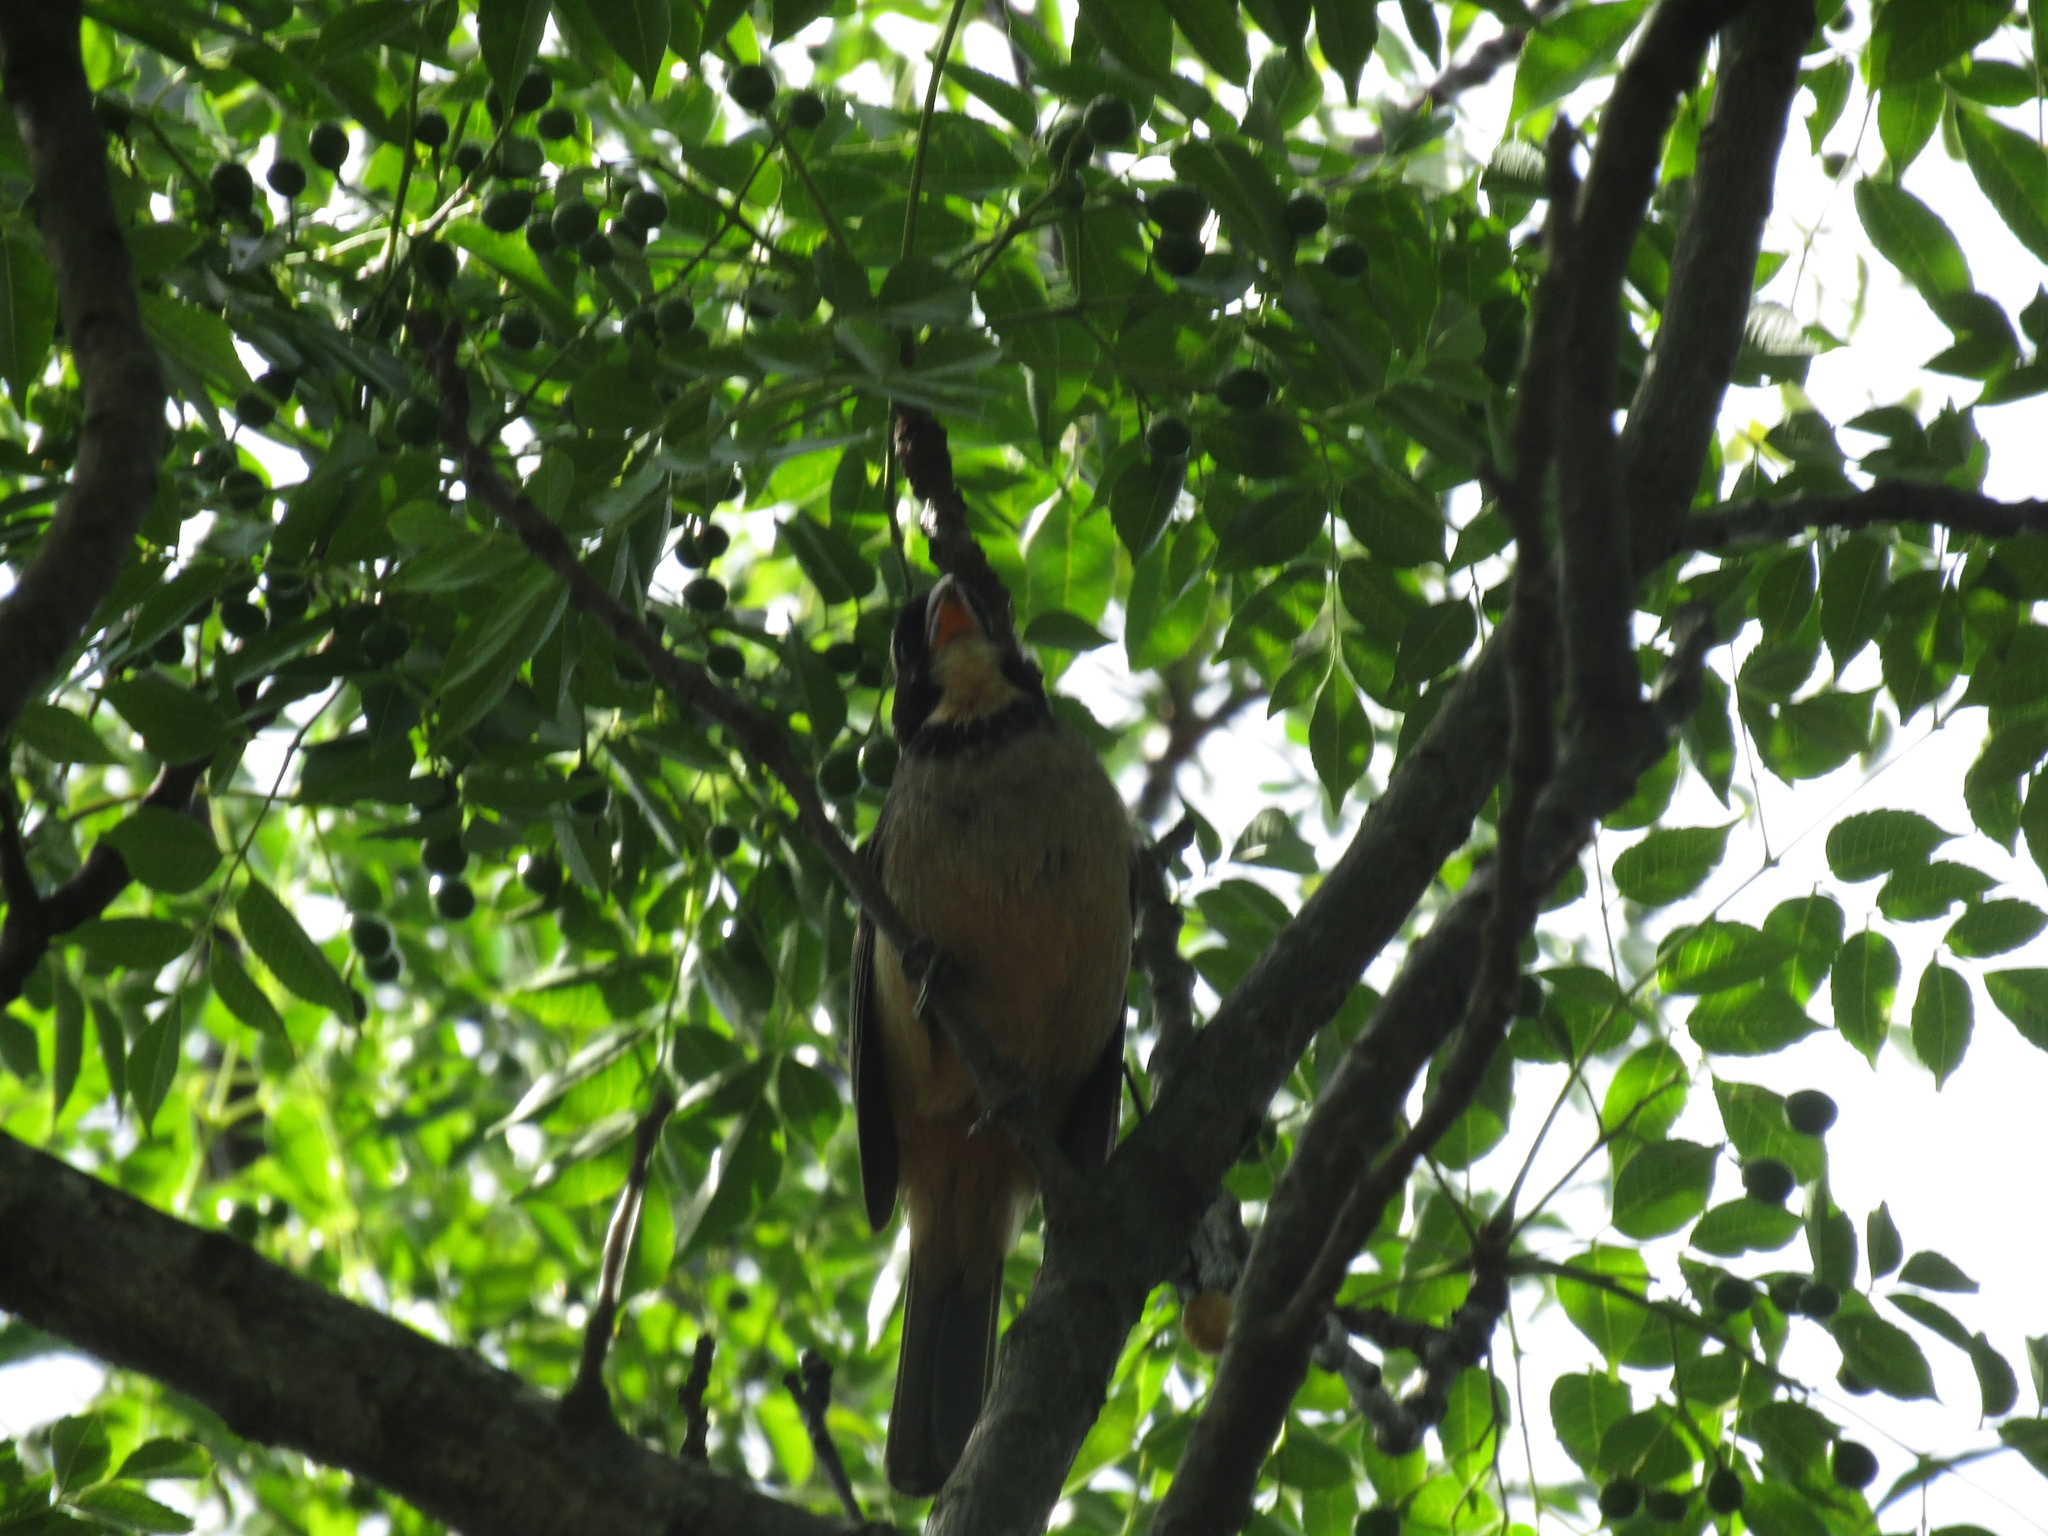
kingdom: Animalia
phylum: Chordata
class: Aves
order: Passeriformes
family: Thraupidae
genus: Saltator
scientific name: Saltator aurantiirostris
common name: Golden-billed saltator
